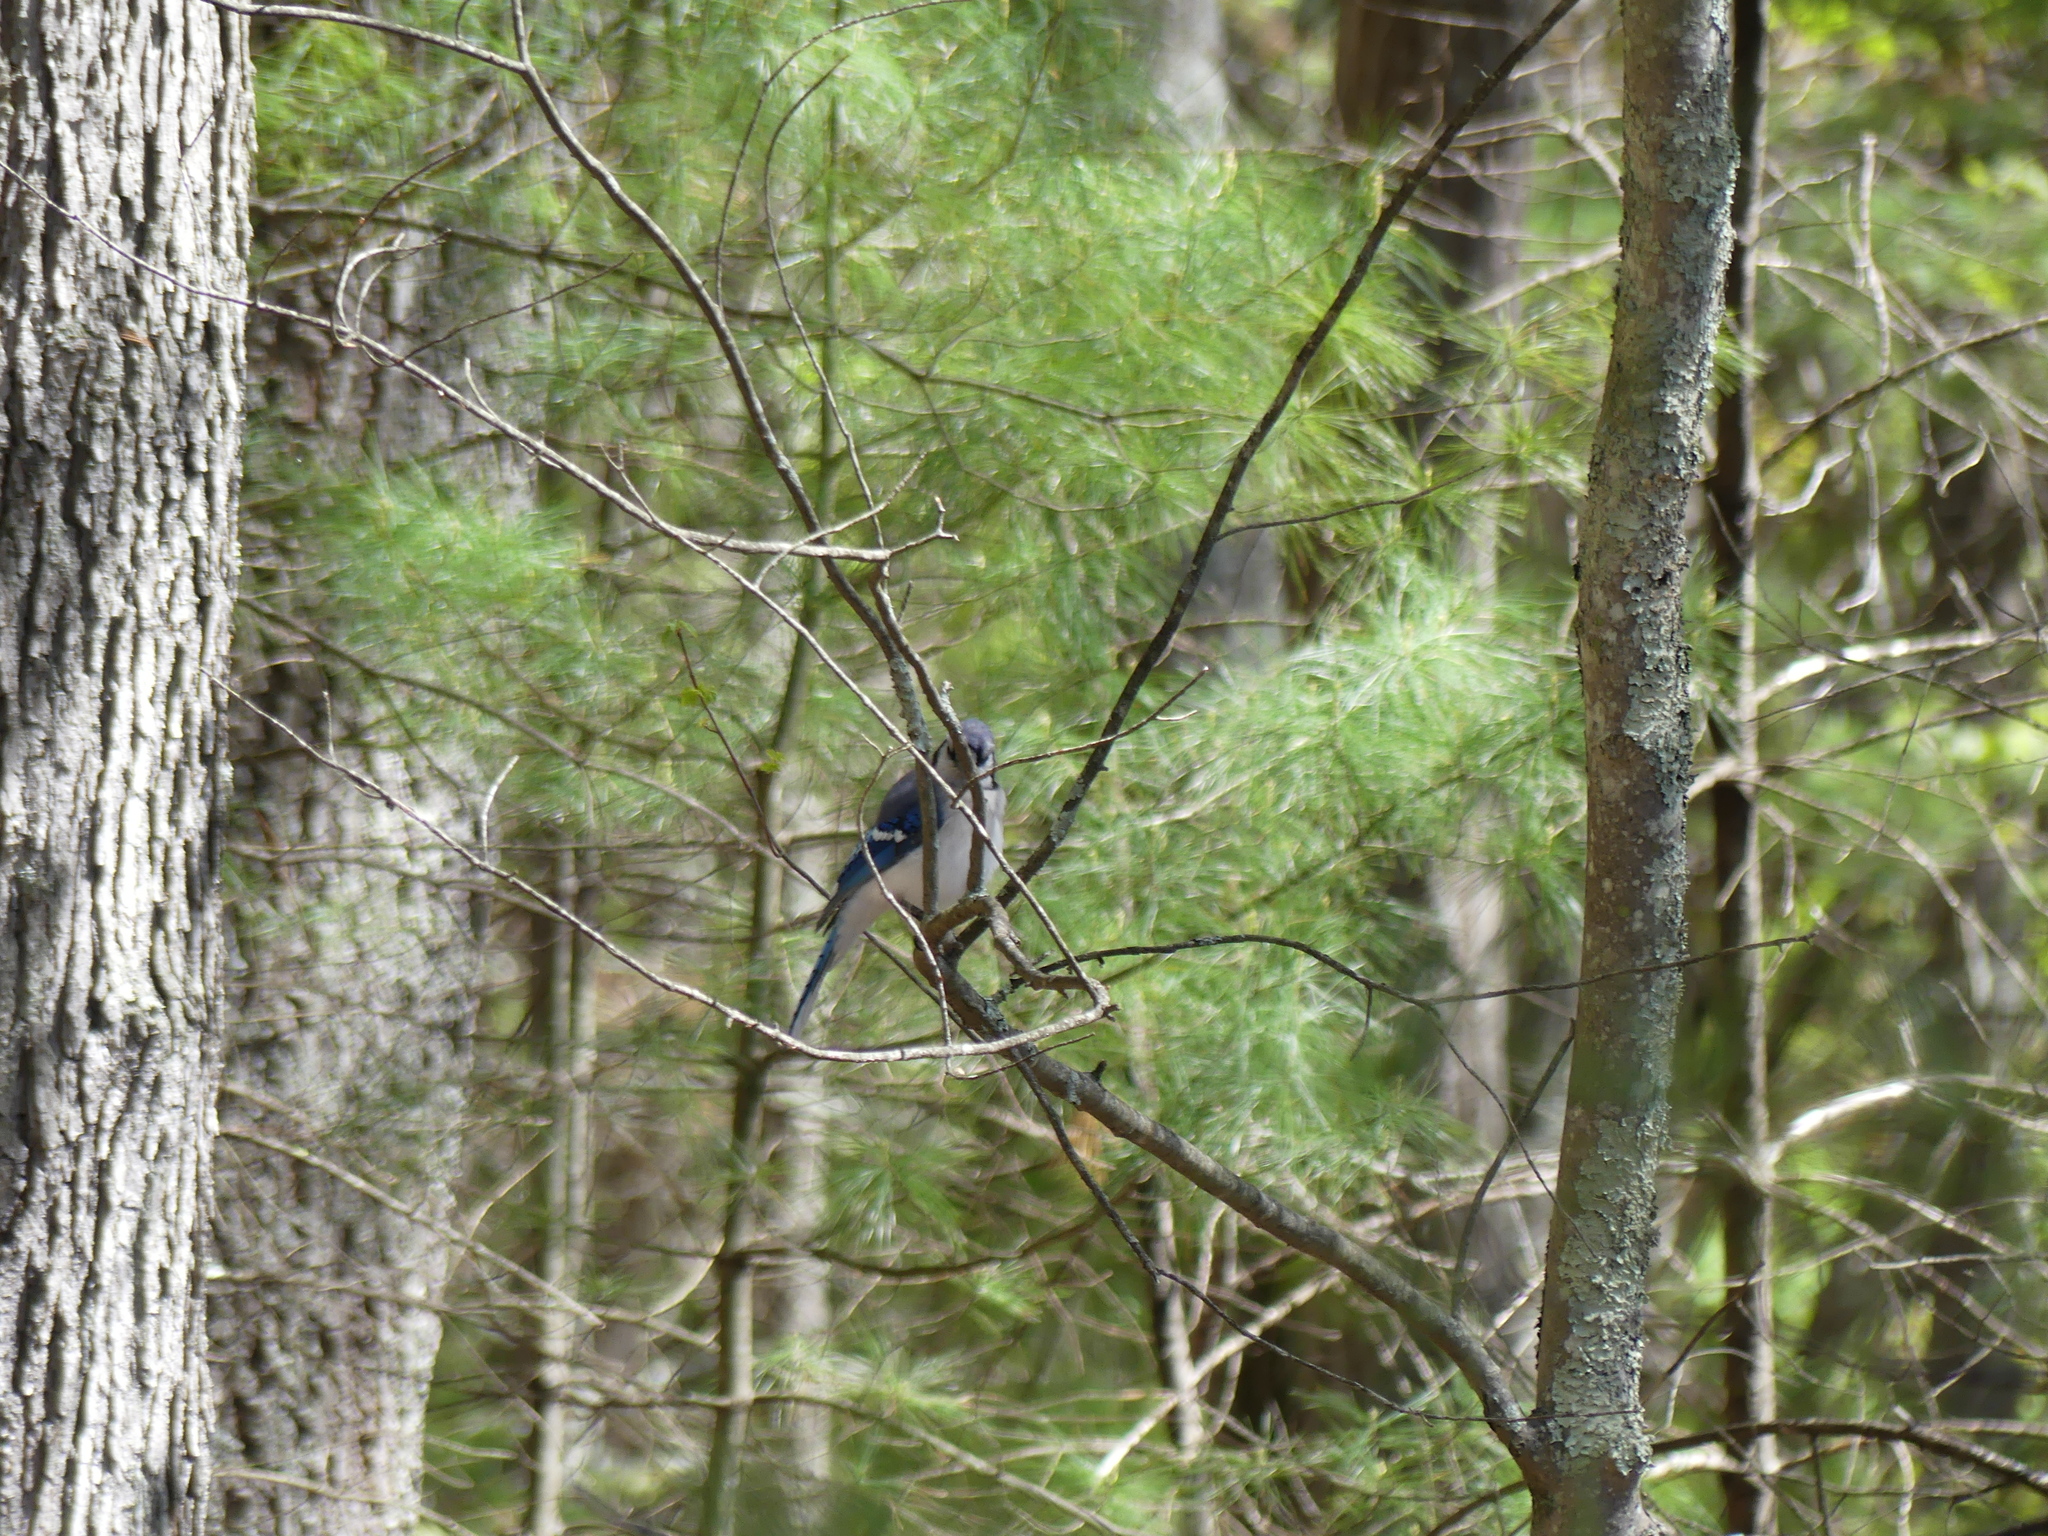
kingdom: Animalia
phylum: Chordata
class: Aves
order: Passeriformes
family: Corvidae
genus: Cyanocitta
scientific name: Cyanocitta cristata
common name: Blue jay
